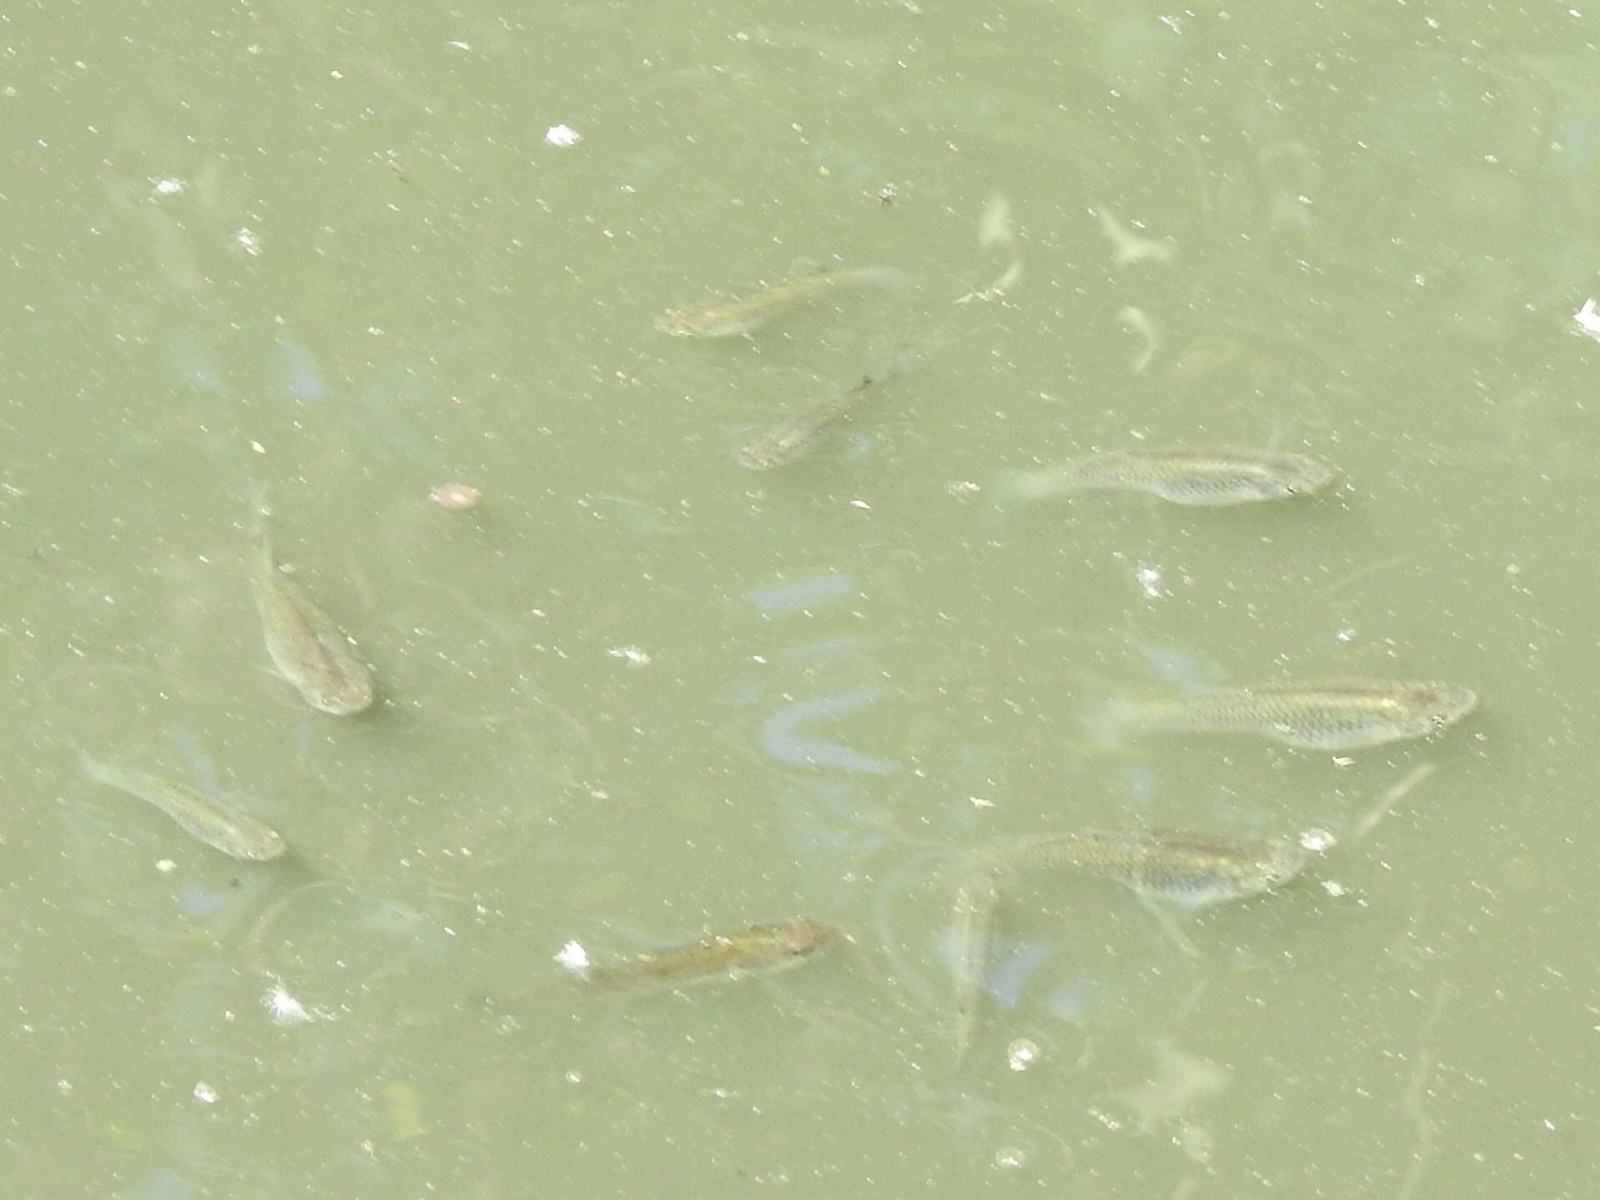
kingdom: Animalia
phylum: Chordata
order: Cyprinodontiformes
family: Poeciliidae
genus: Gambusia
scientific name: Gambusia affinis
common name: Mosquitofish
